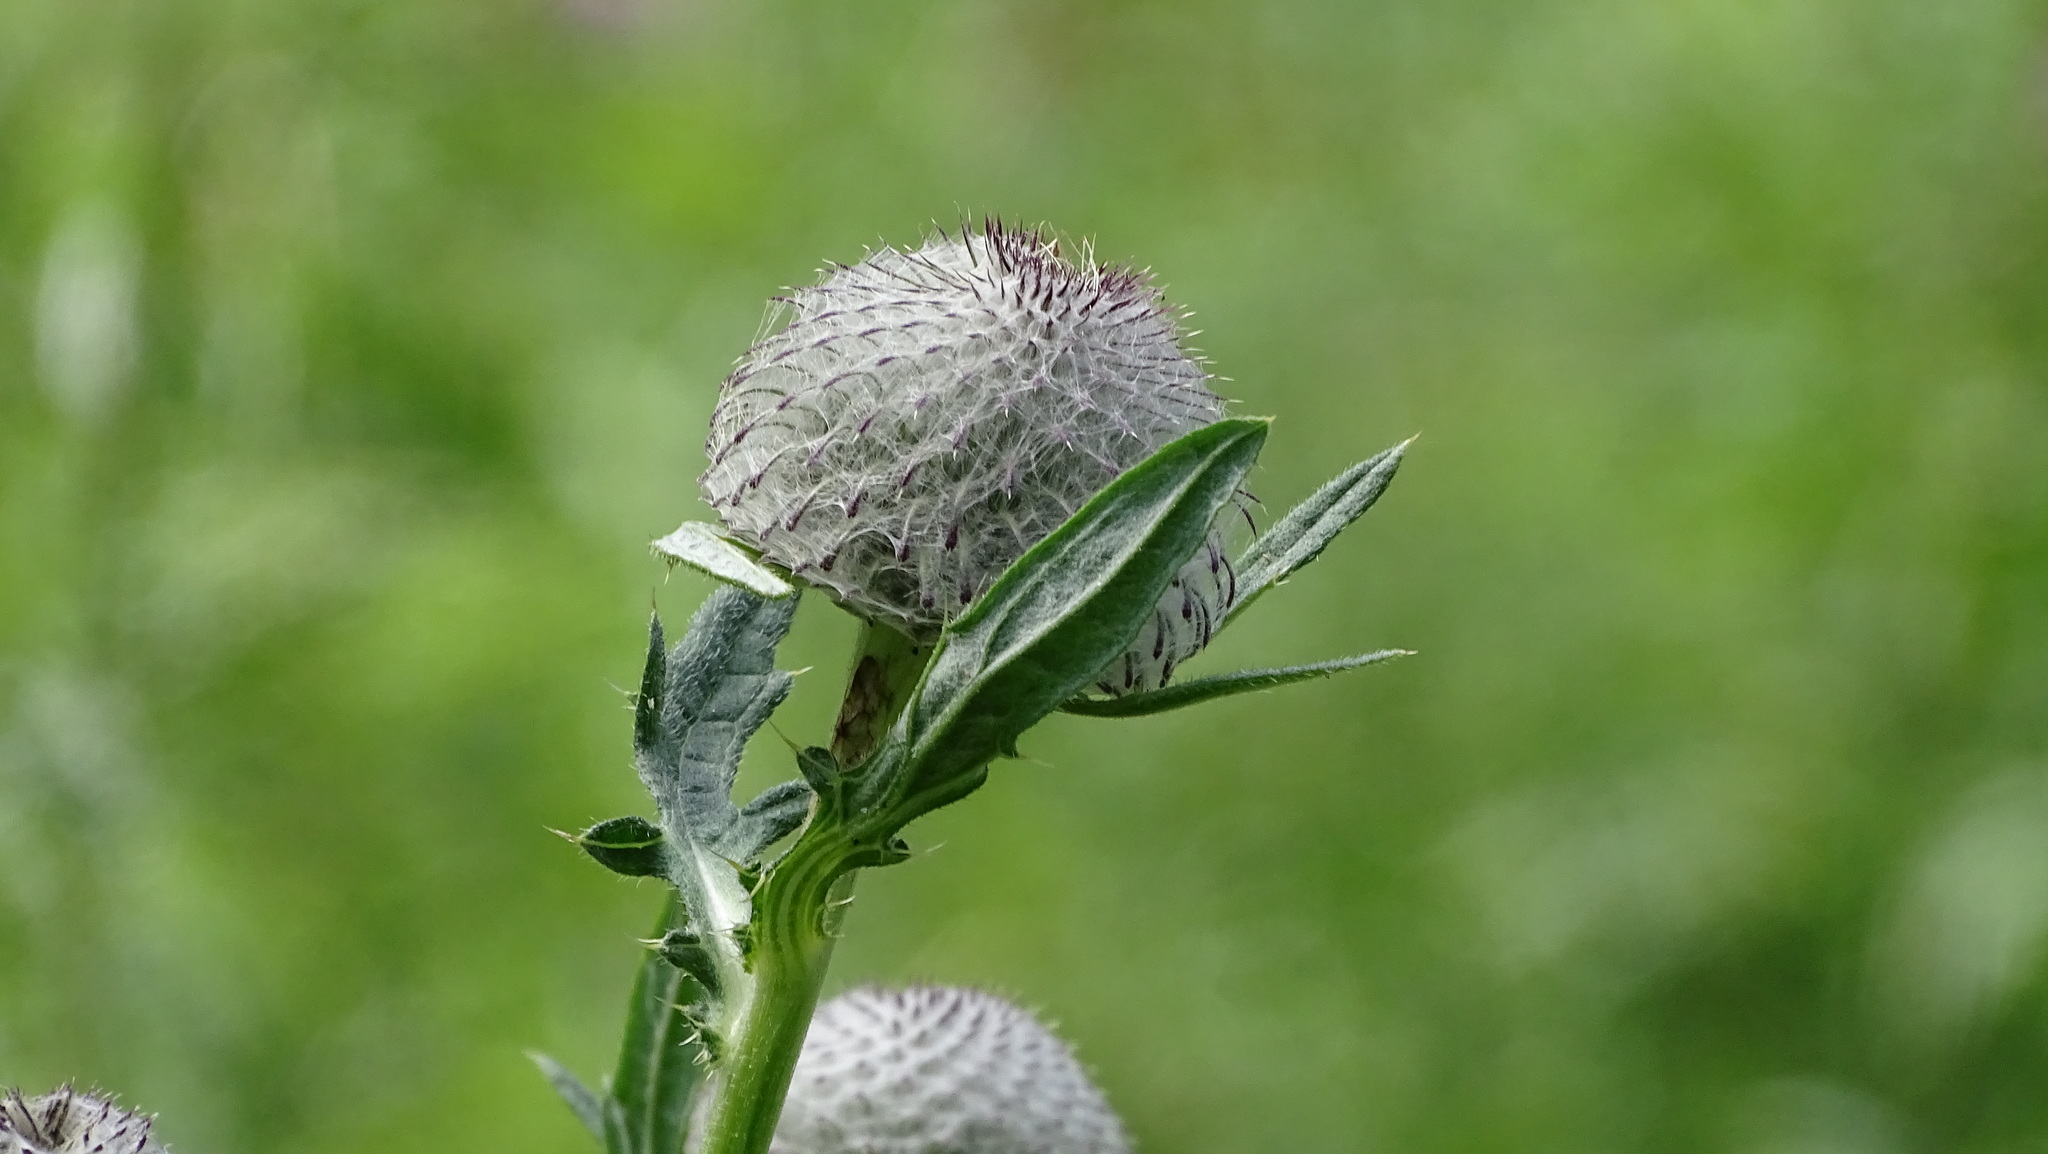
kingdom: Plantae
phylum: Tracheophyta
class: Magnoliopsida
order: Asterales
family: Asteraceae
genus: Lophiolepis
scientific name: Lophiolepis eriophora
